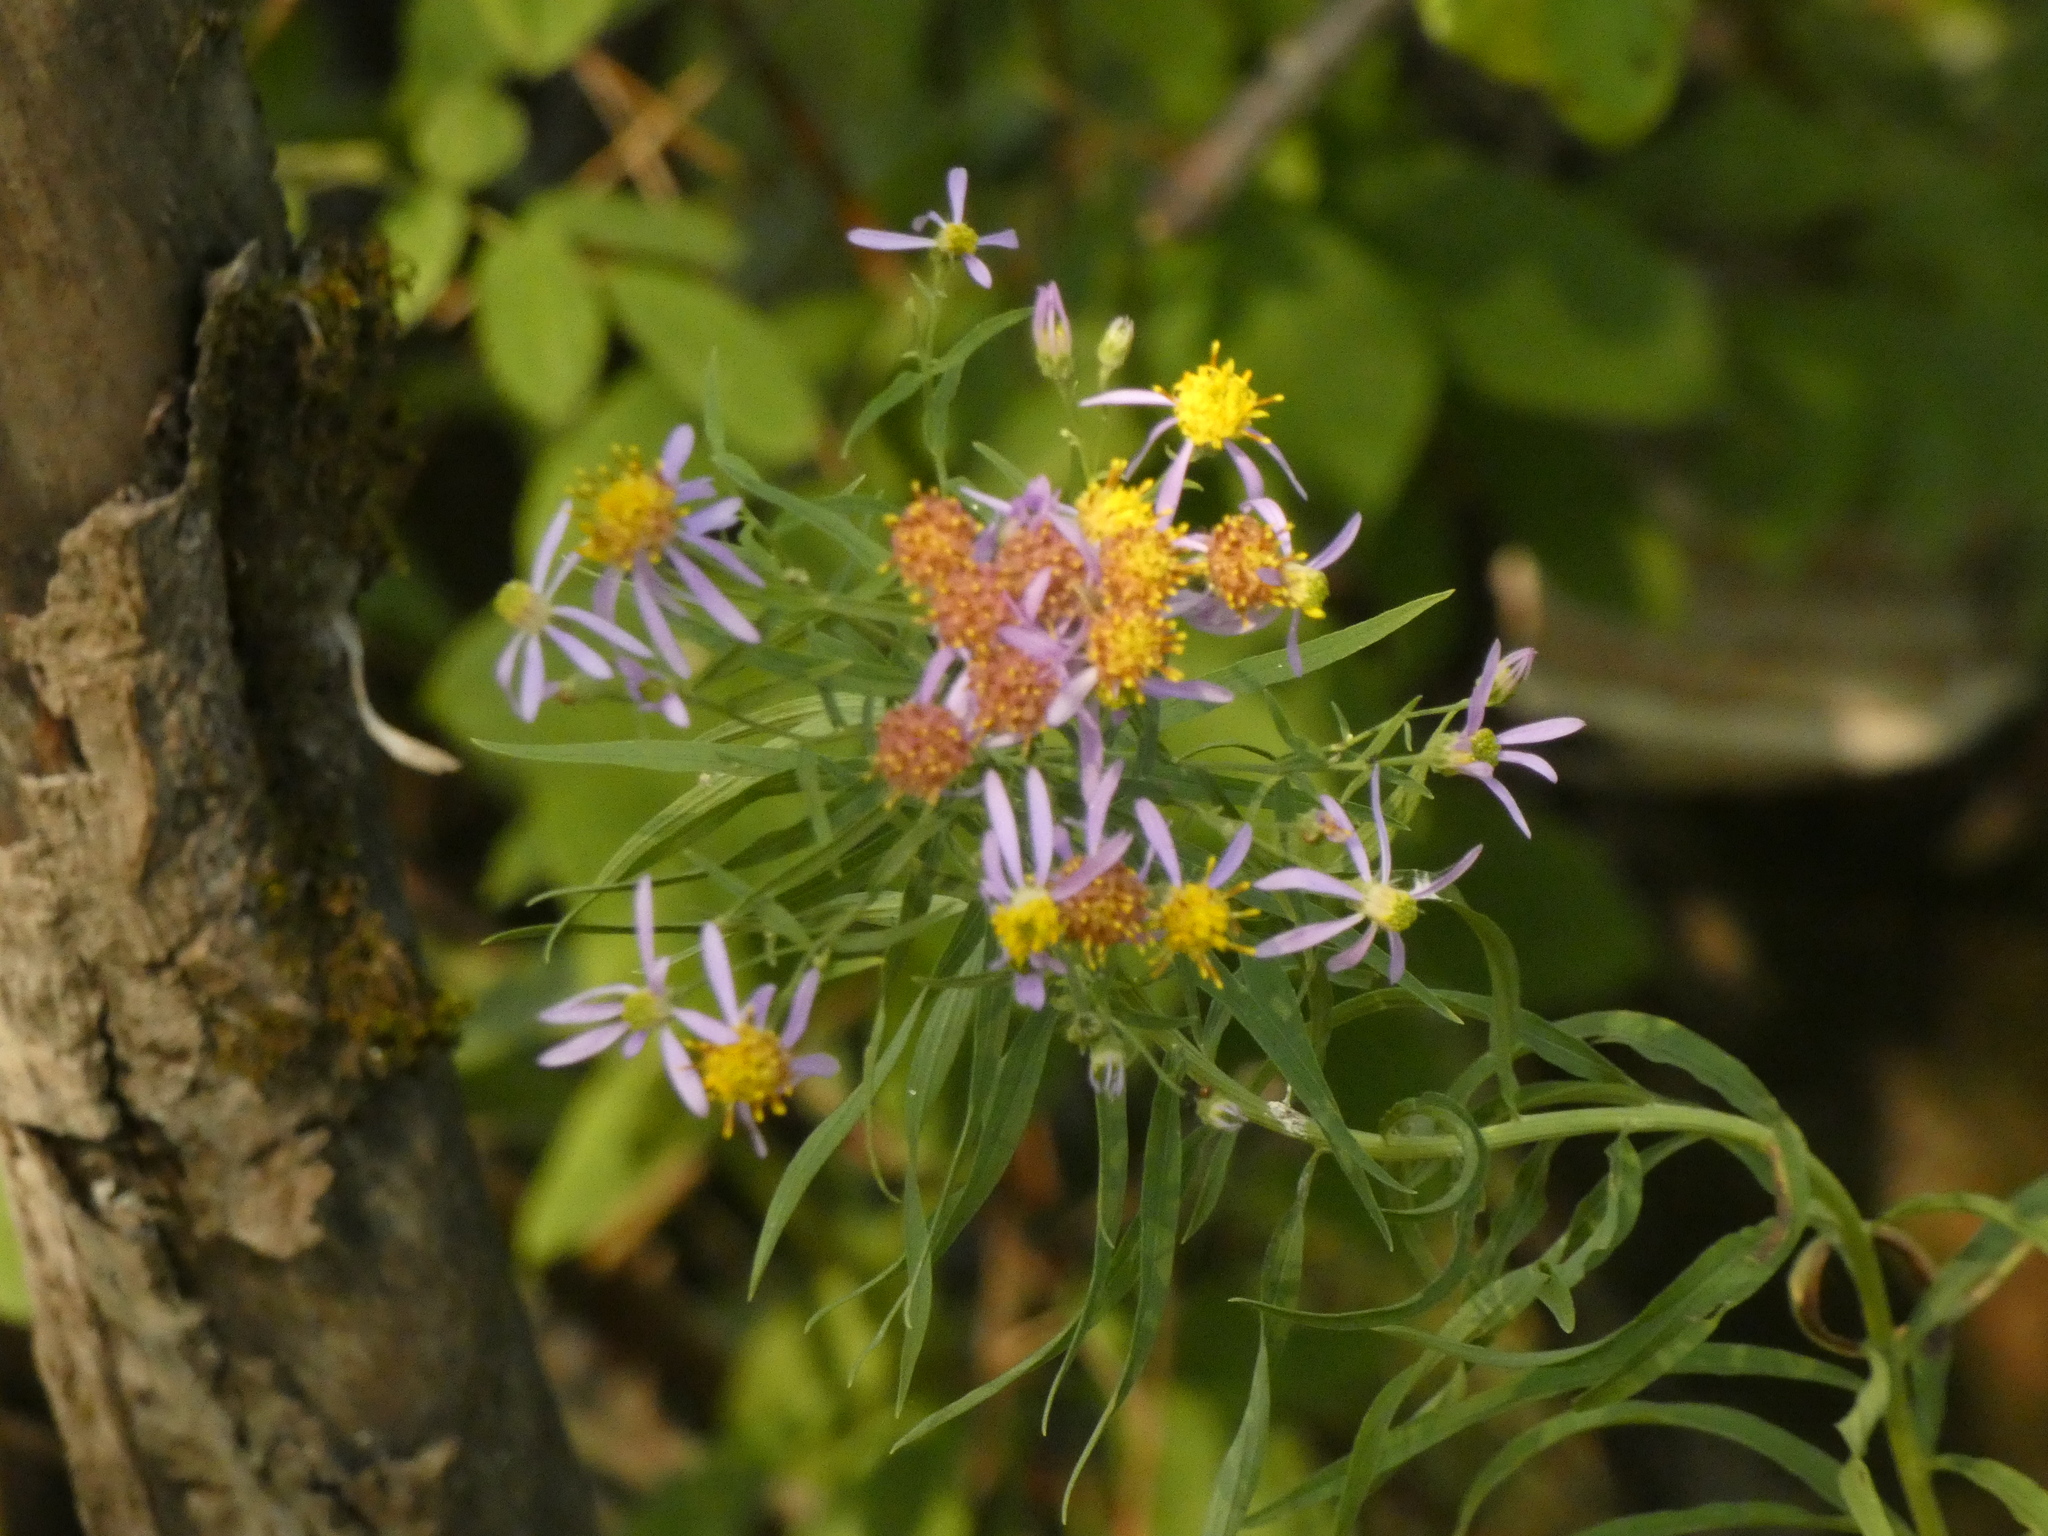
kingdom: Plantae
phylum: Tracheophyta
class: Magnoliopsida
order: Asterales
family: Asteraceae
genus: Galatella
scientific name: Galatella sedifolia
